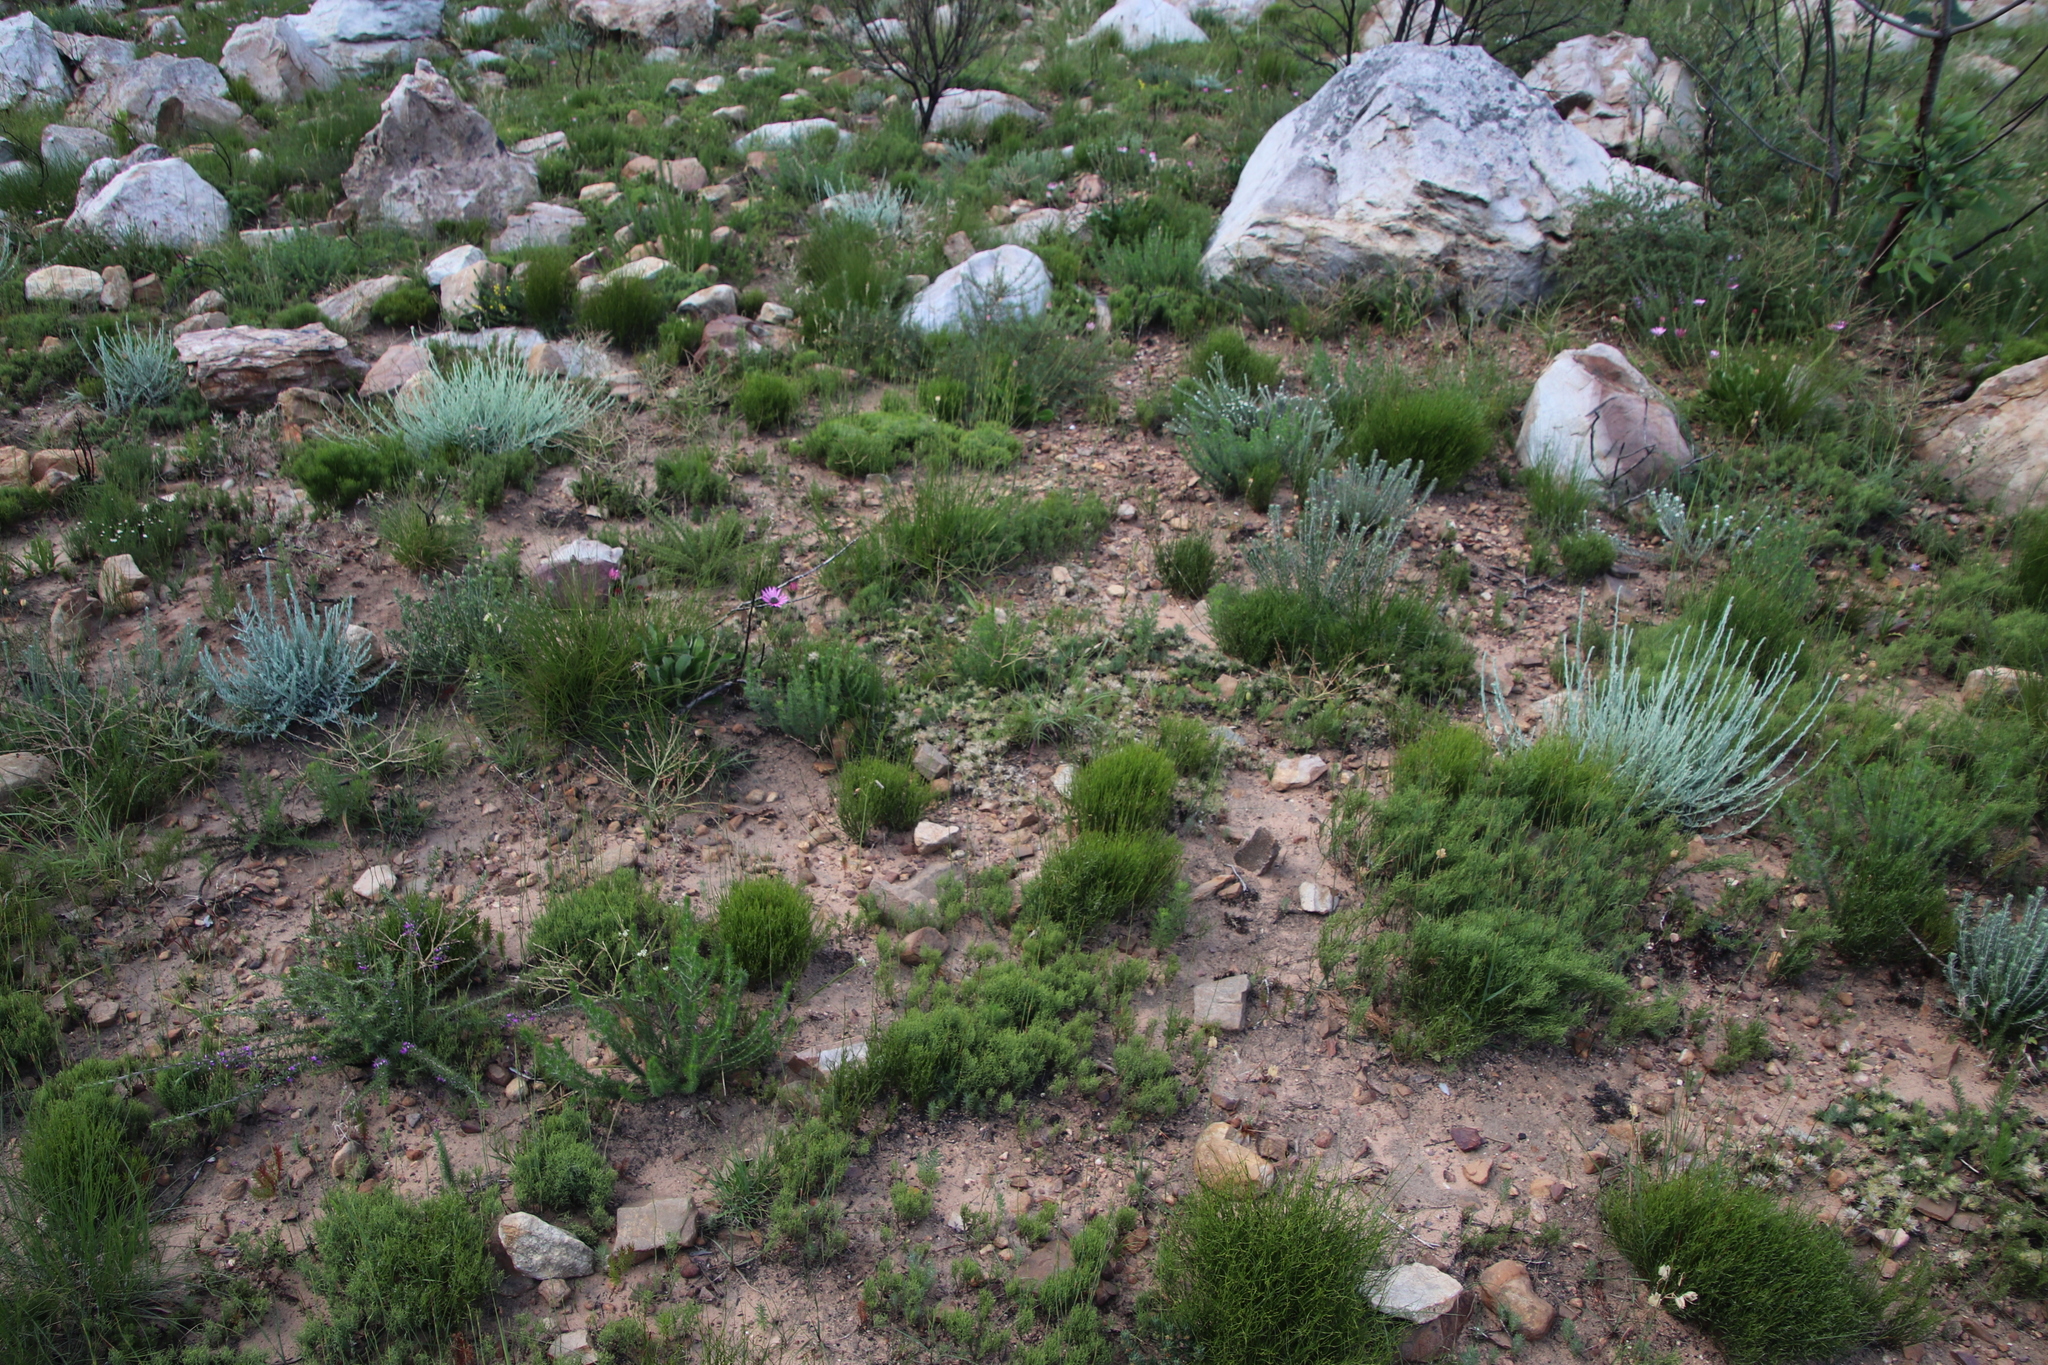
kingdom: Plantae
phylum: Tracheophyta
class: Magnoliopsida
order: Fabales
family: Fabaceae
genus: Lotononis
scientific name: Lotononis involucrata
